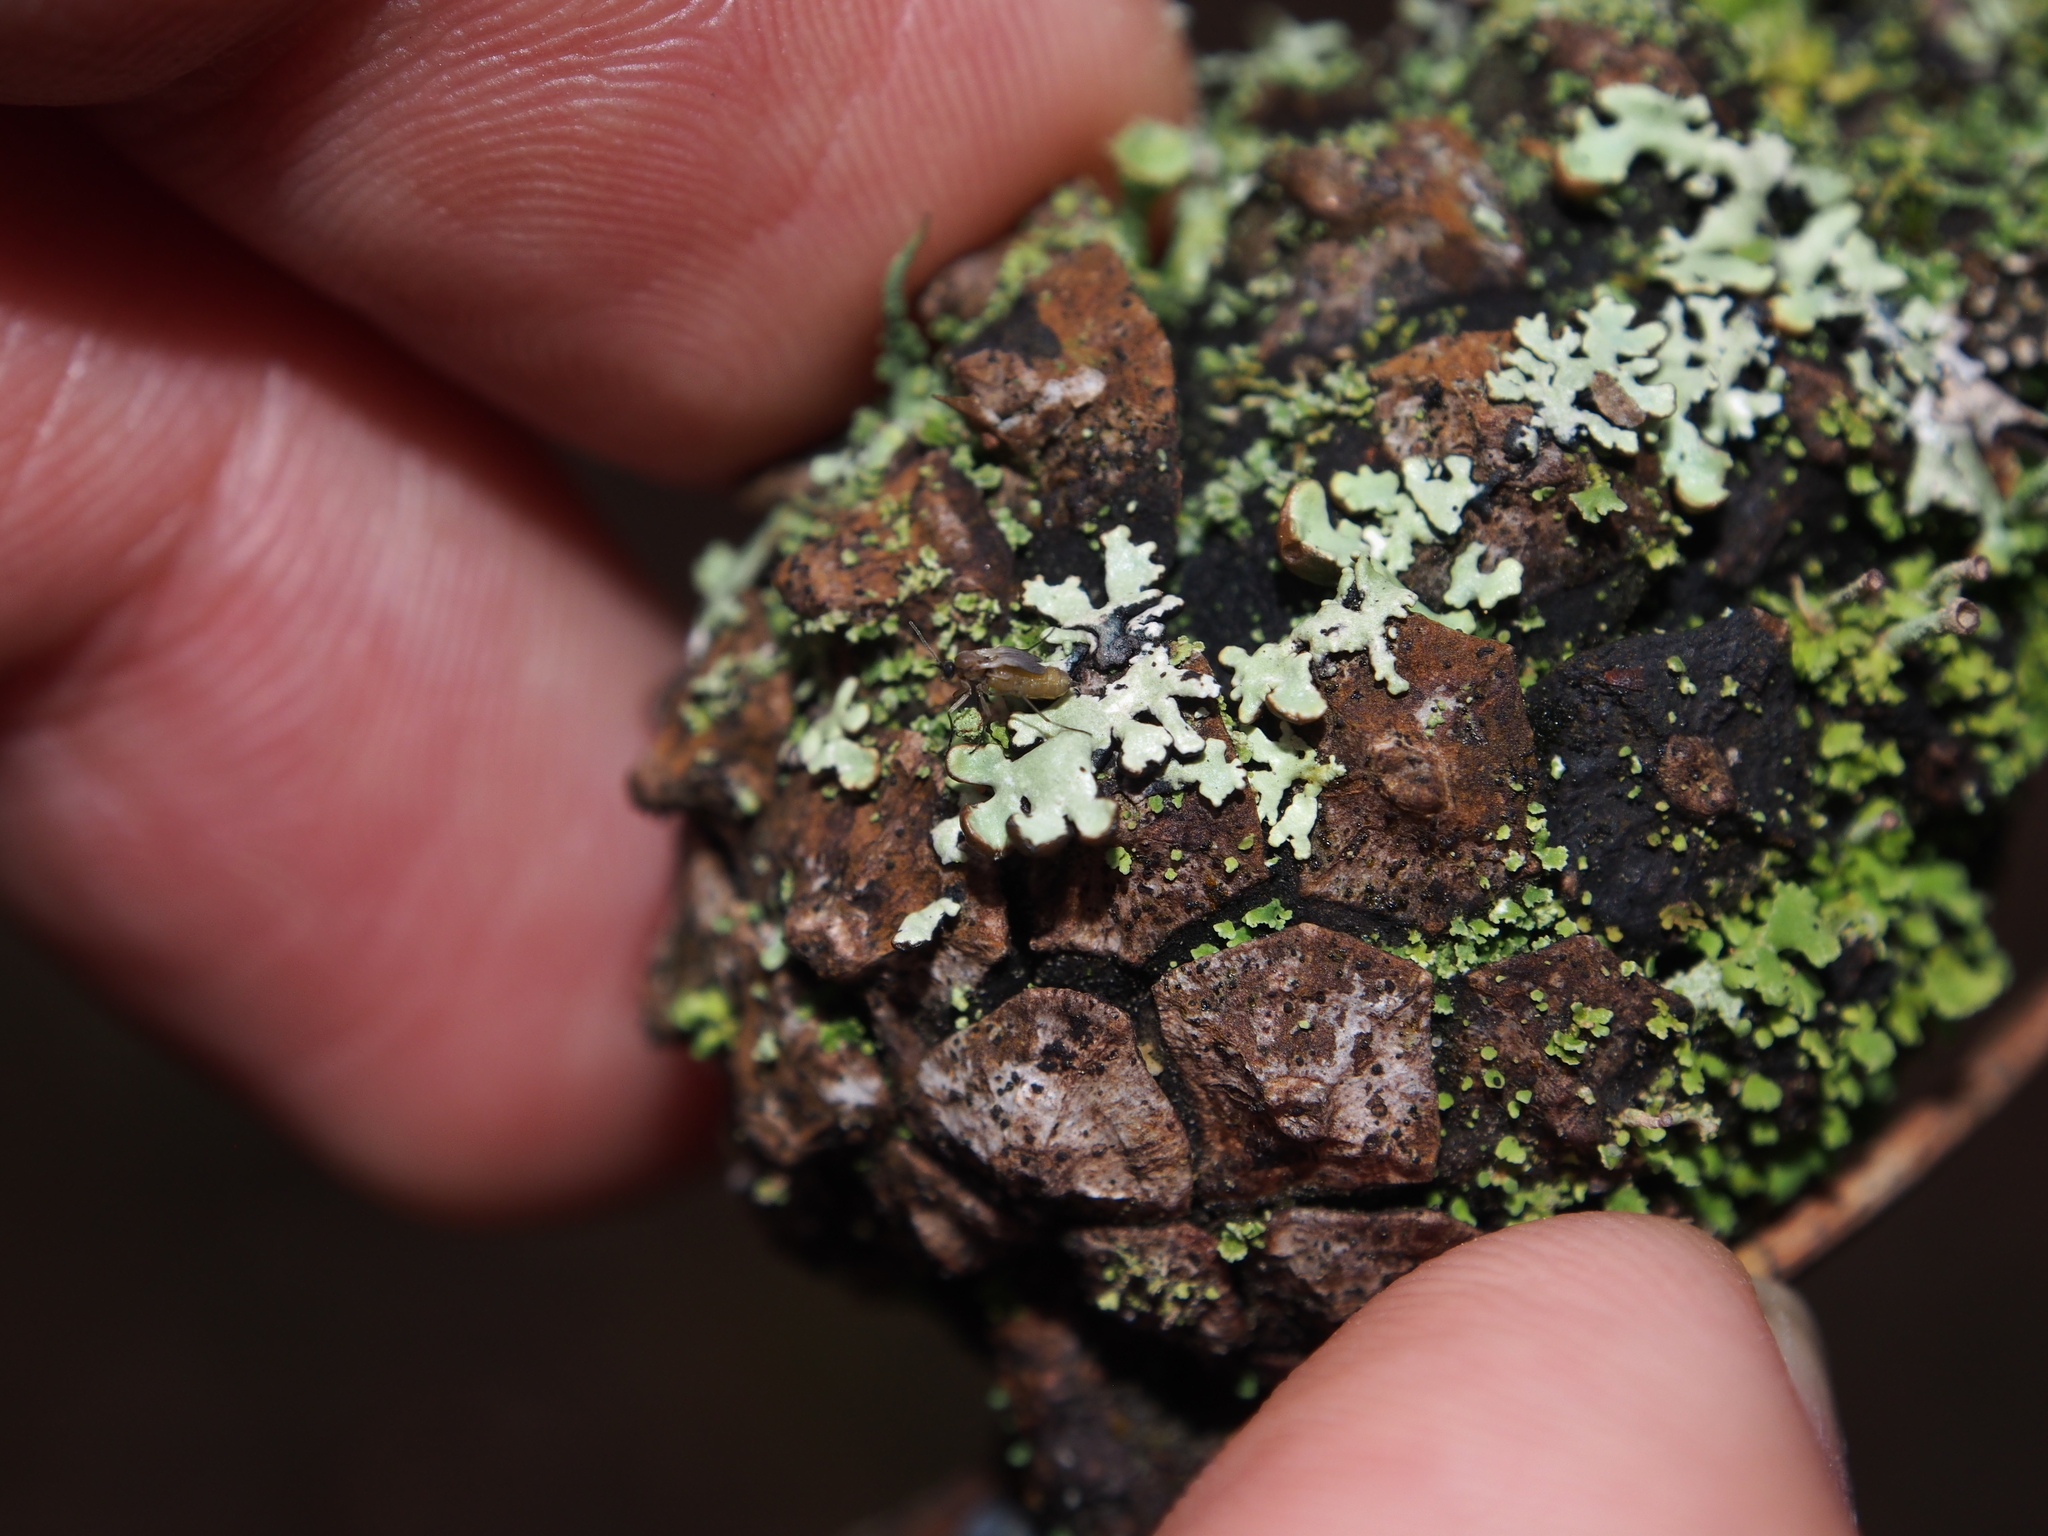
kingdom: Fungi
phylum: Ascomycota
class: Lecanoromycetes
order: Lecanorales
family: Parmeliaceae
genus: Hypogymnia
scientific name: Hypogymnia physodes
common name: Dark crottle
